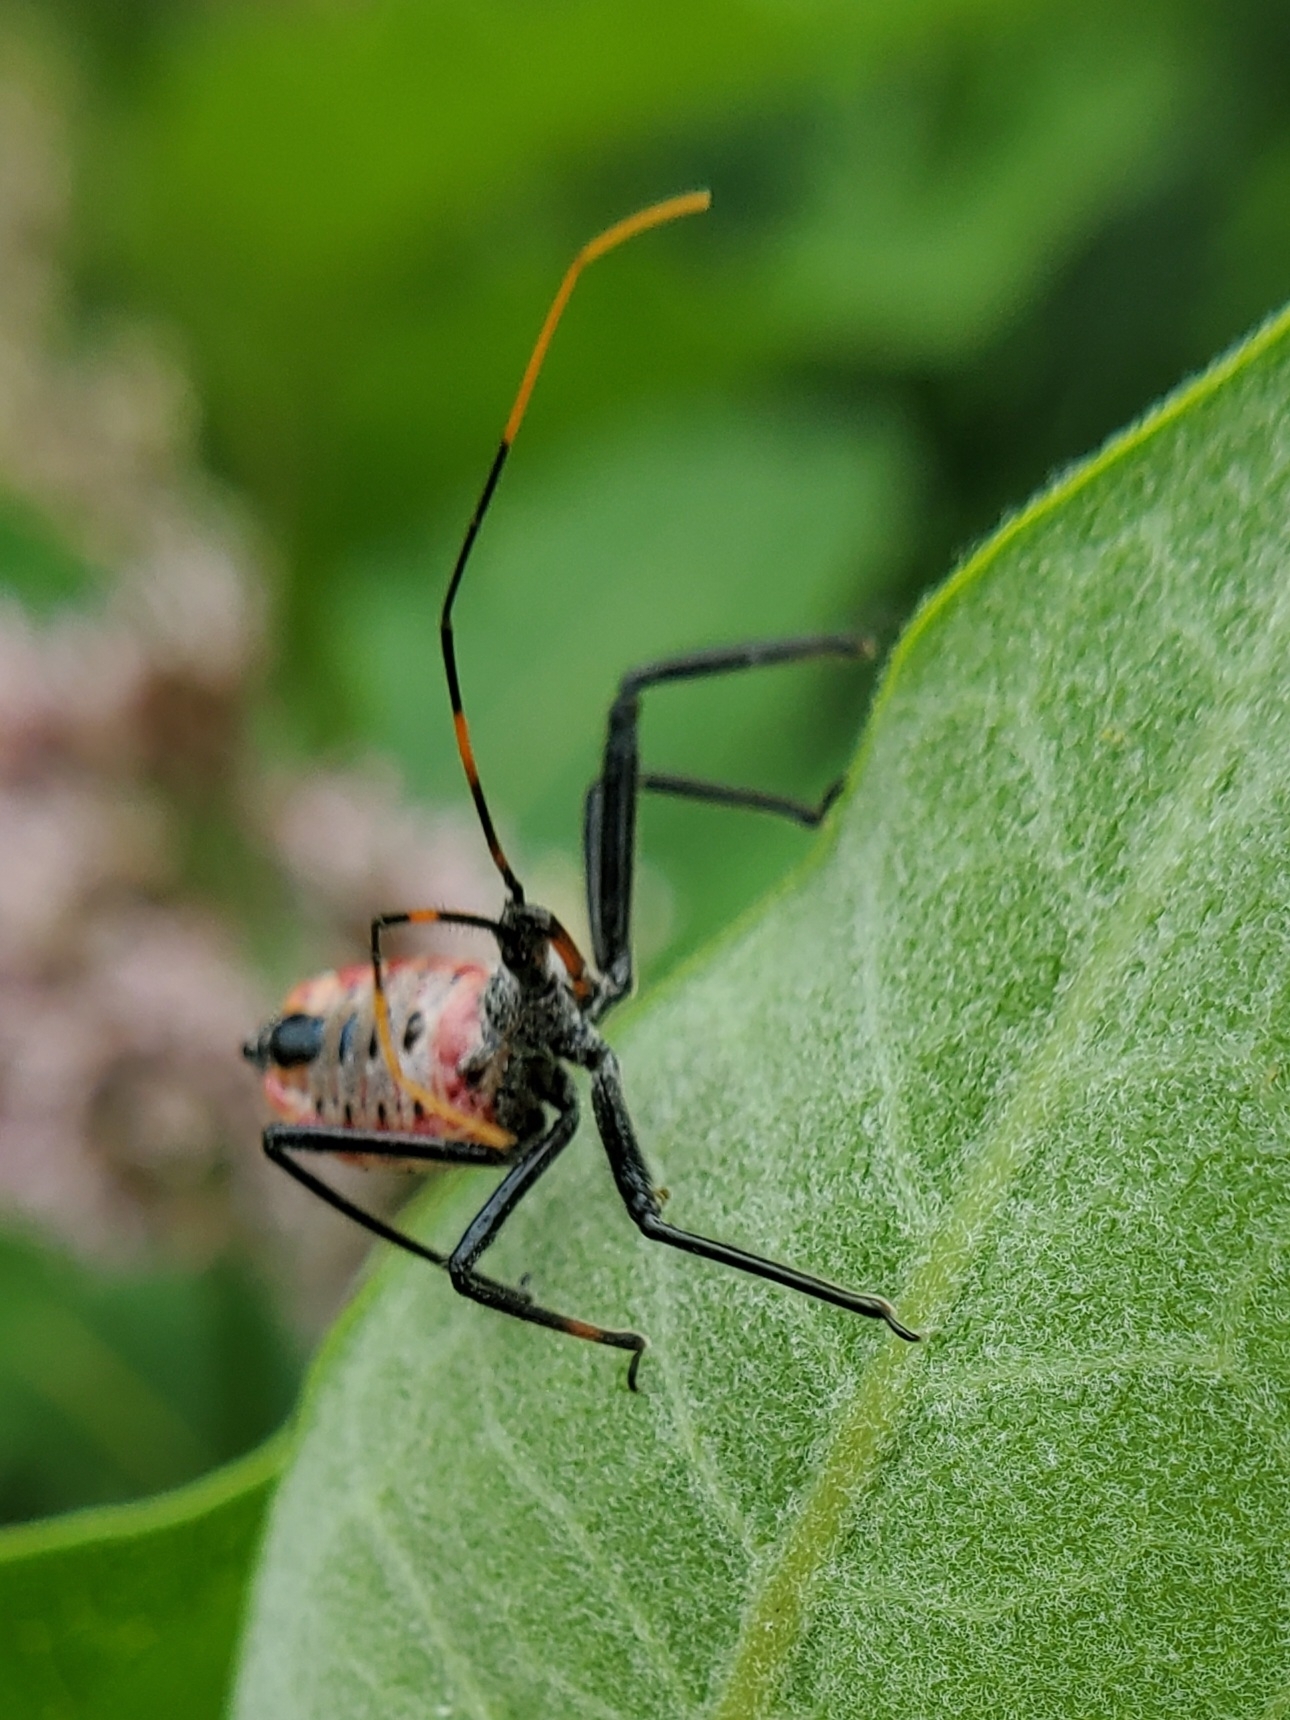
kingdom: Animalia
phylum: Arthropoda
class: Insecta
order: Hemiptera
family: Reduviidae
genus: Arilus
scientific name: Arilus cristatus
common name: North american wheel bug
